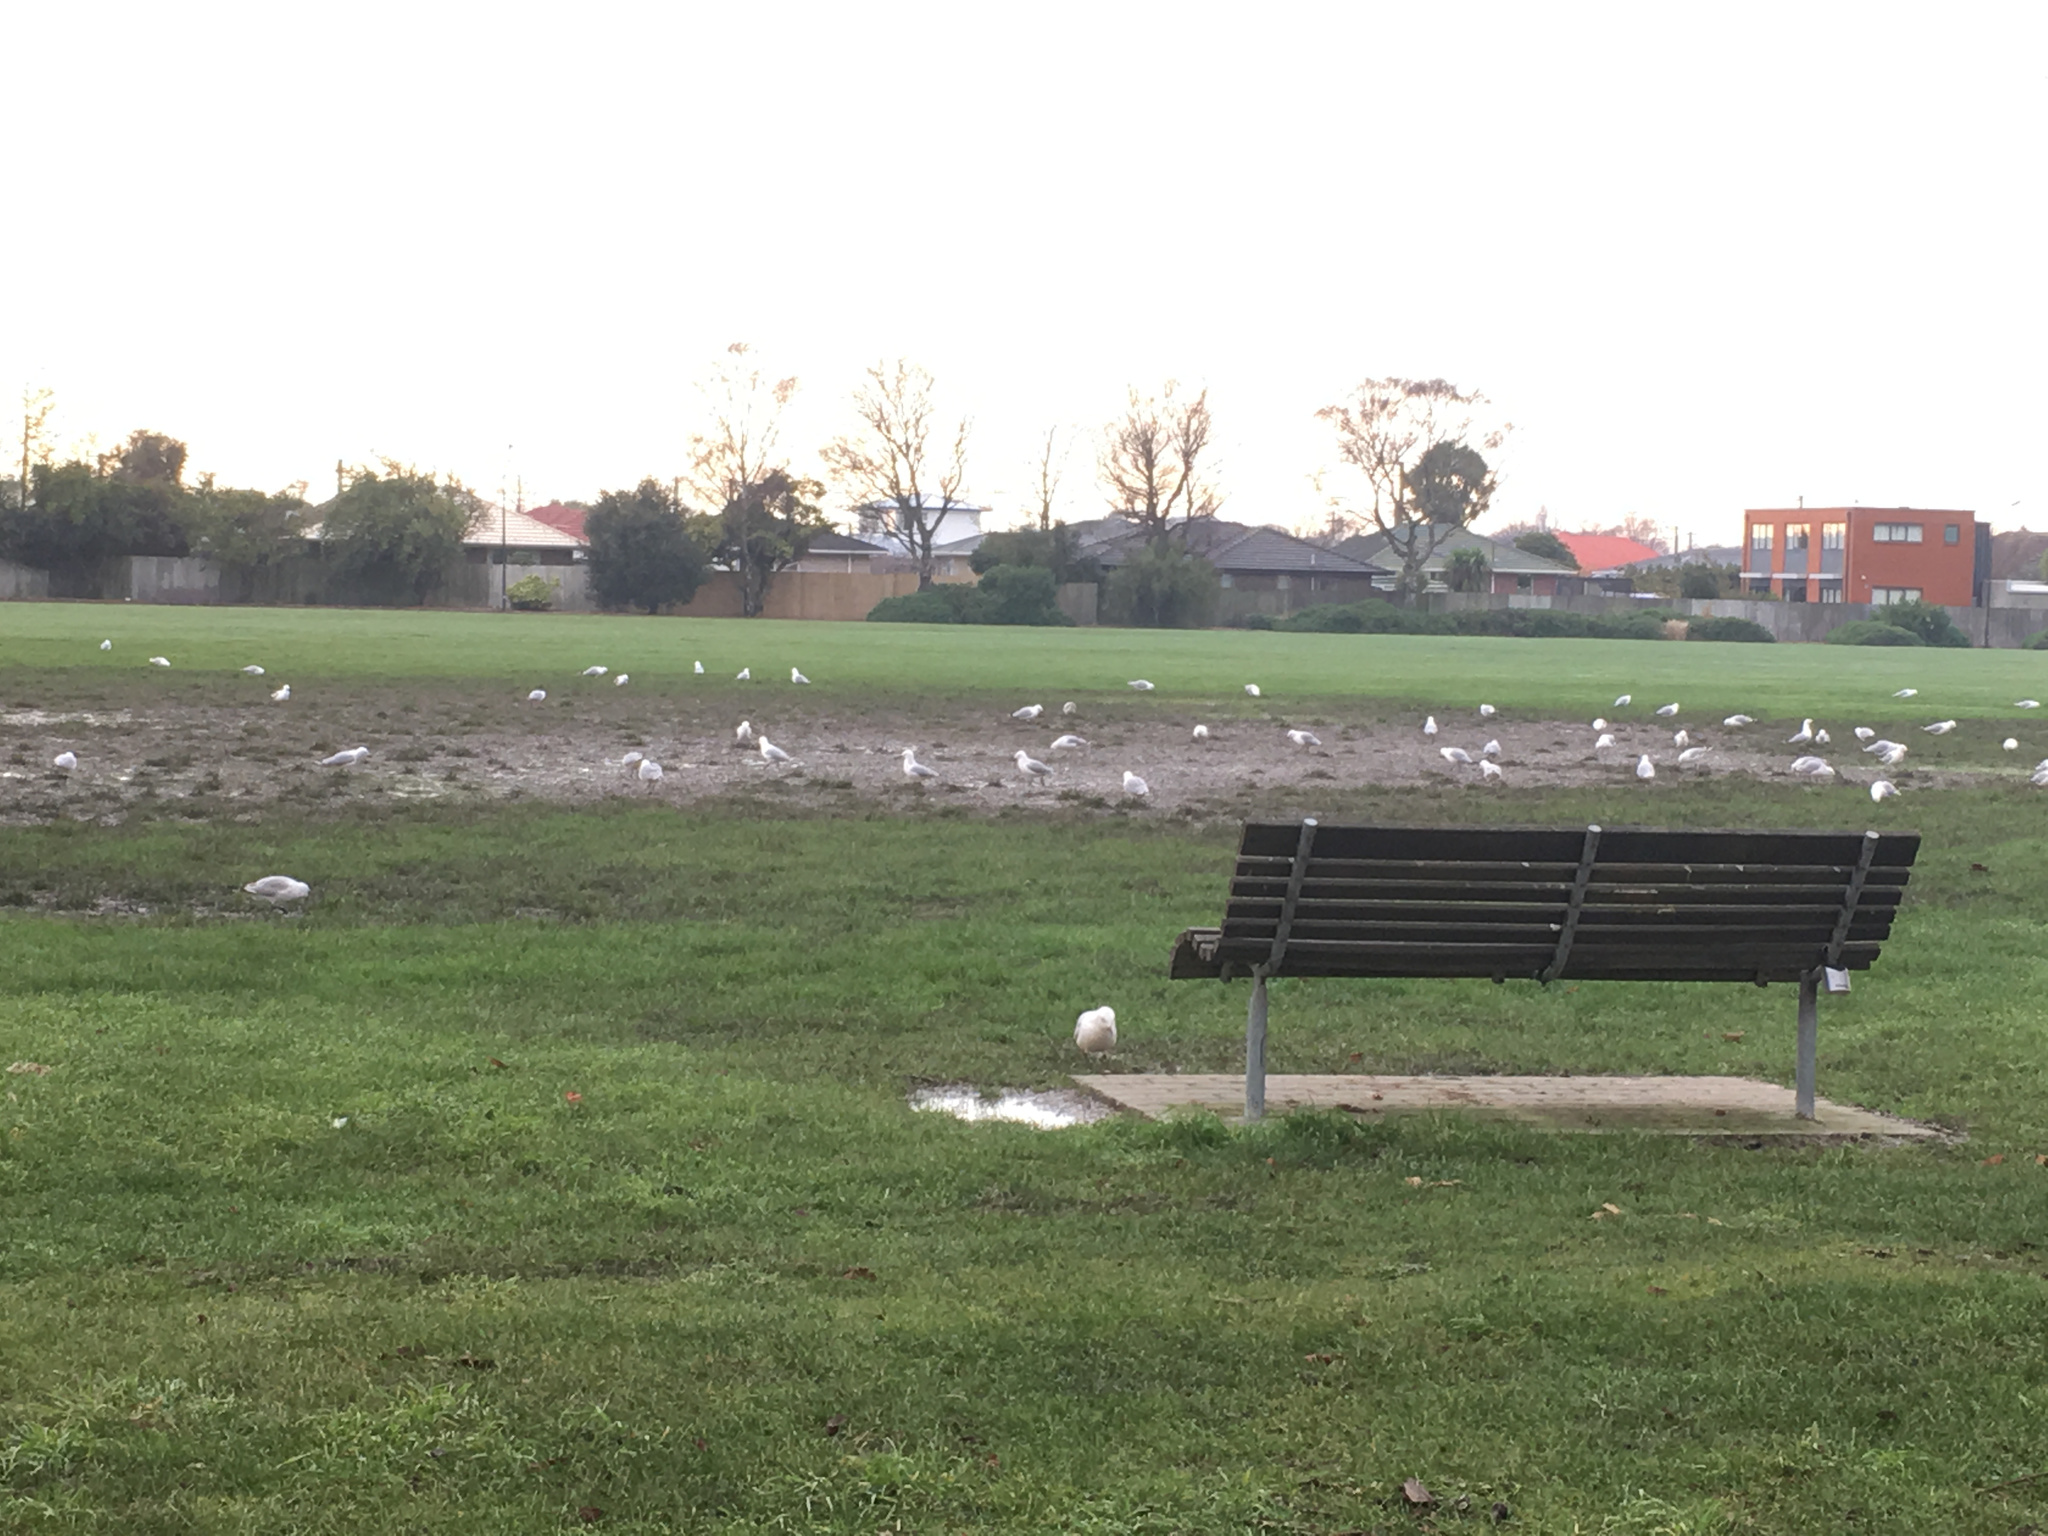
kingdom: Animalia
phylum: Chordata
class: Aves
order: Charadriiformes
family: Laridae
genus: Chroicocephalus
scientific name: Chroicocephalus novaehollandiae
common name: Silver gull
